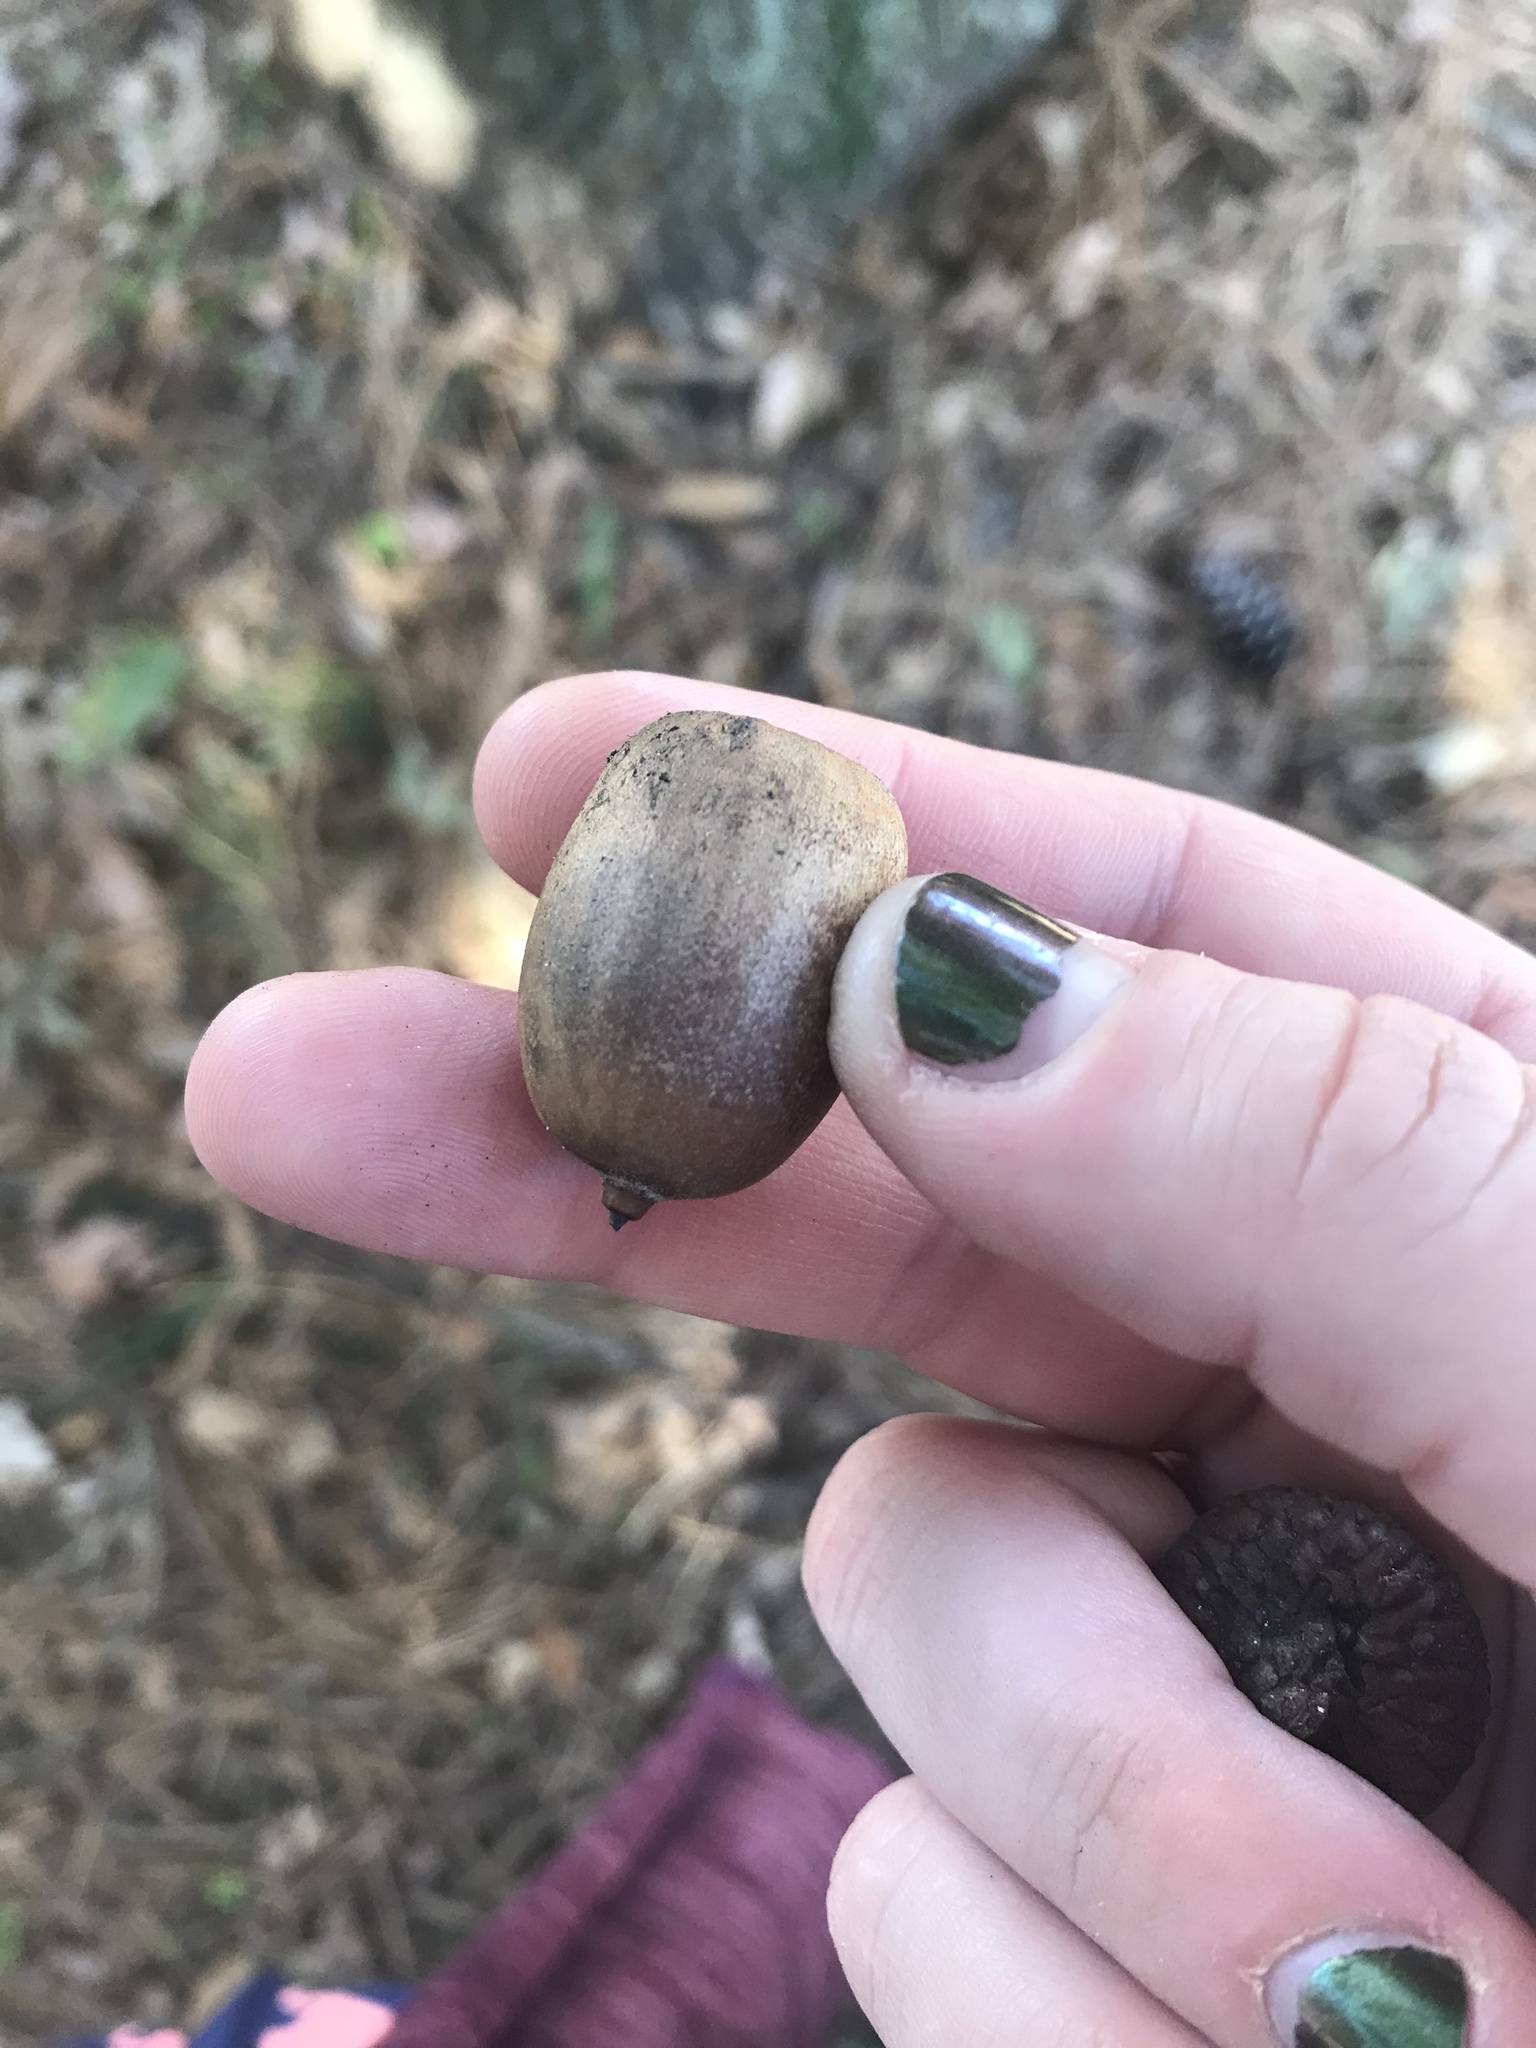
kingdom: Plantae
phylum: Tracheophyta
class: Magnoliopsida
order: Fagales
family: Fagaceae
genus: Quercus
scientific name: Quercus rubra
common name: Red oak
